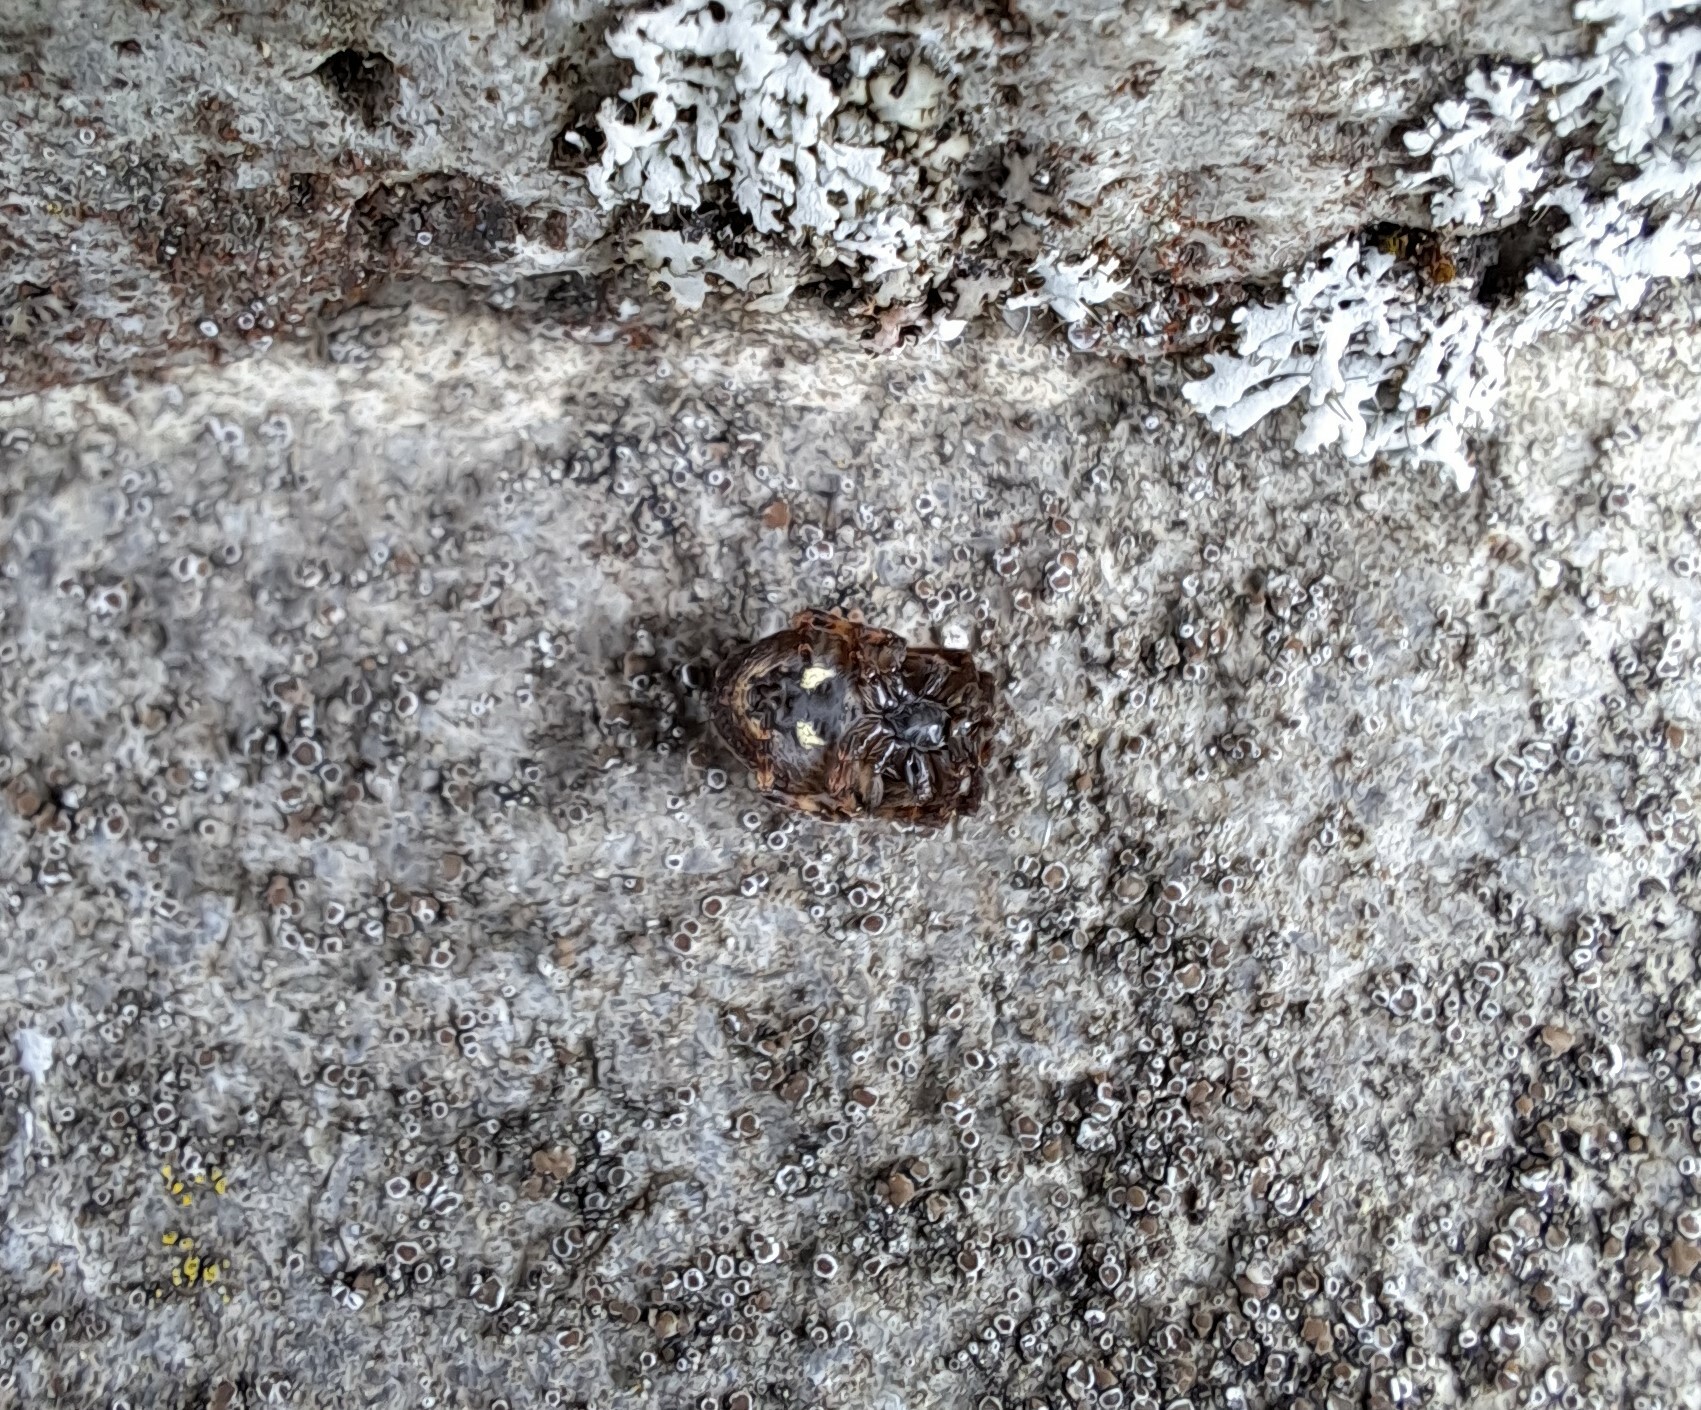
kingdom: Animalia
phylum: Arthropoda
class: Arachnida
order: Araneae
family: Araneidae
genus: Nuctenea
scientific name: Nuctenea umbratica
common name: Toad spider
